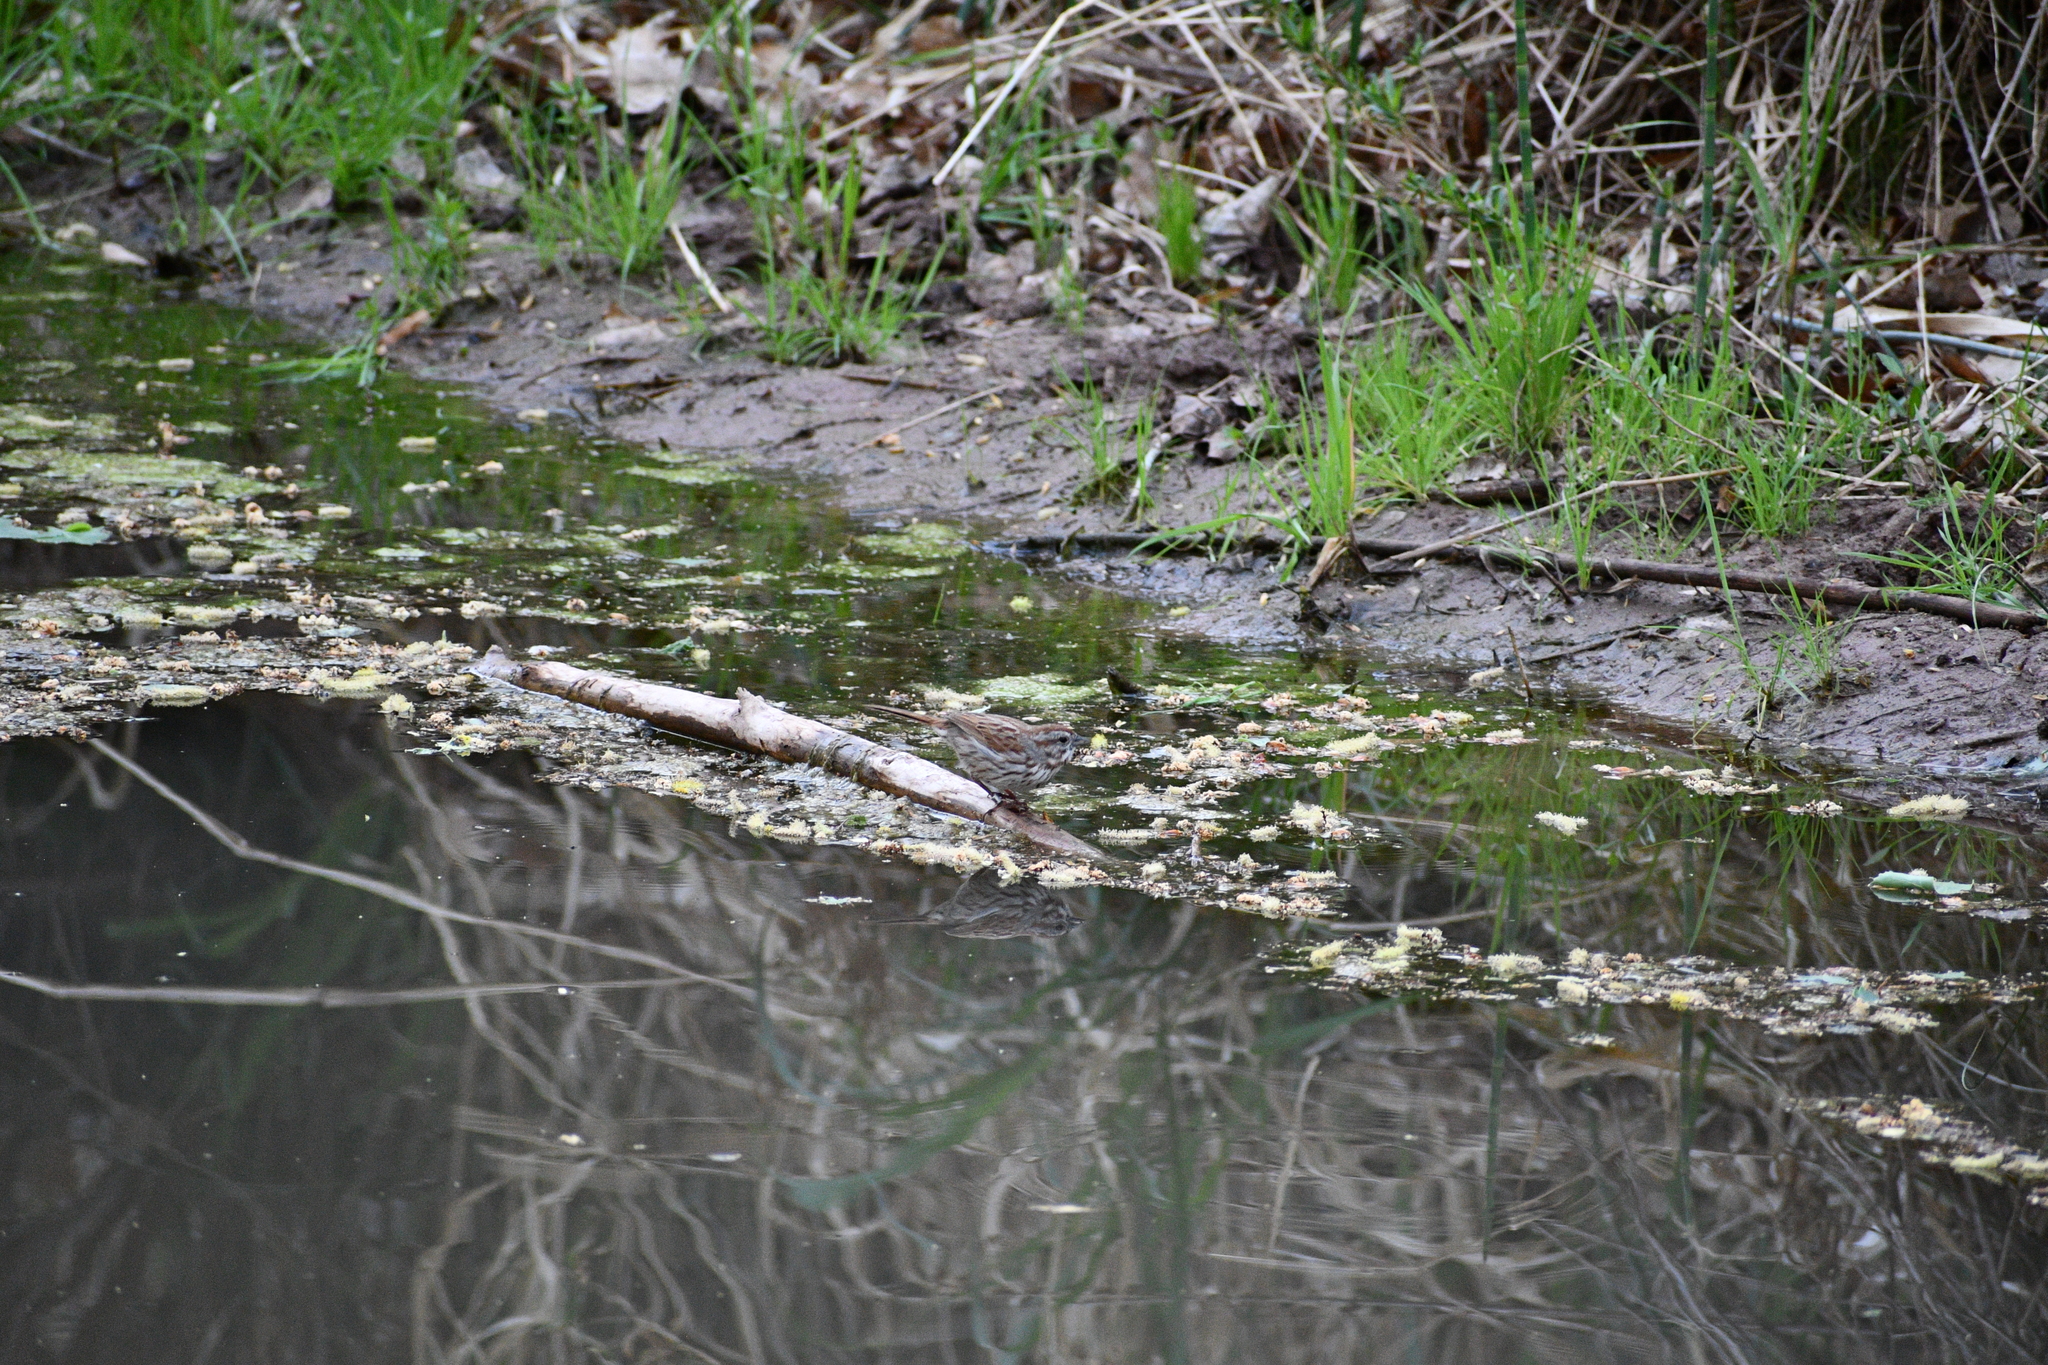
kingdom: Animalia
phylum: Chordata
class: Aves
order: Passeriformes
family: Passerellidae
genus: Melospiza
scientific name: Melospiza melodia
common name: Song sparrow
